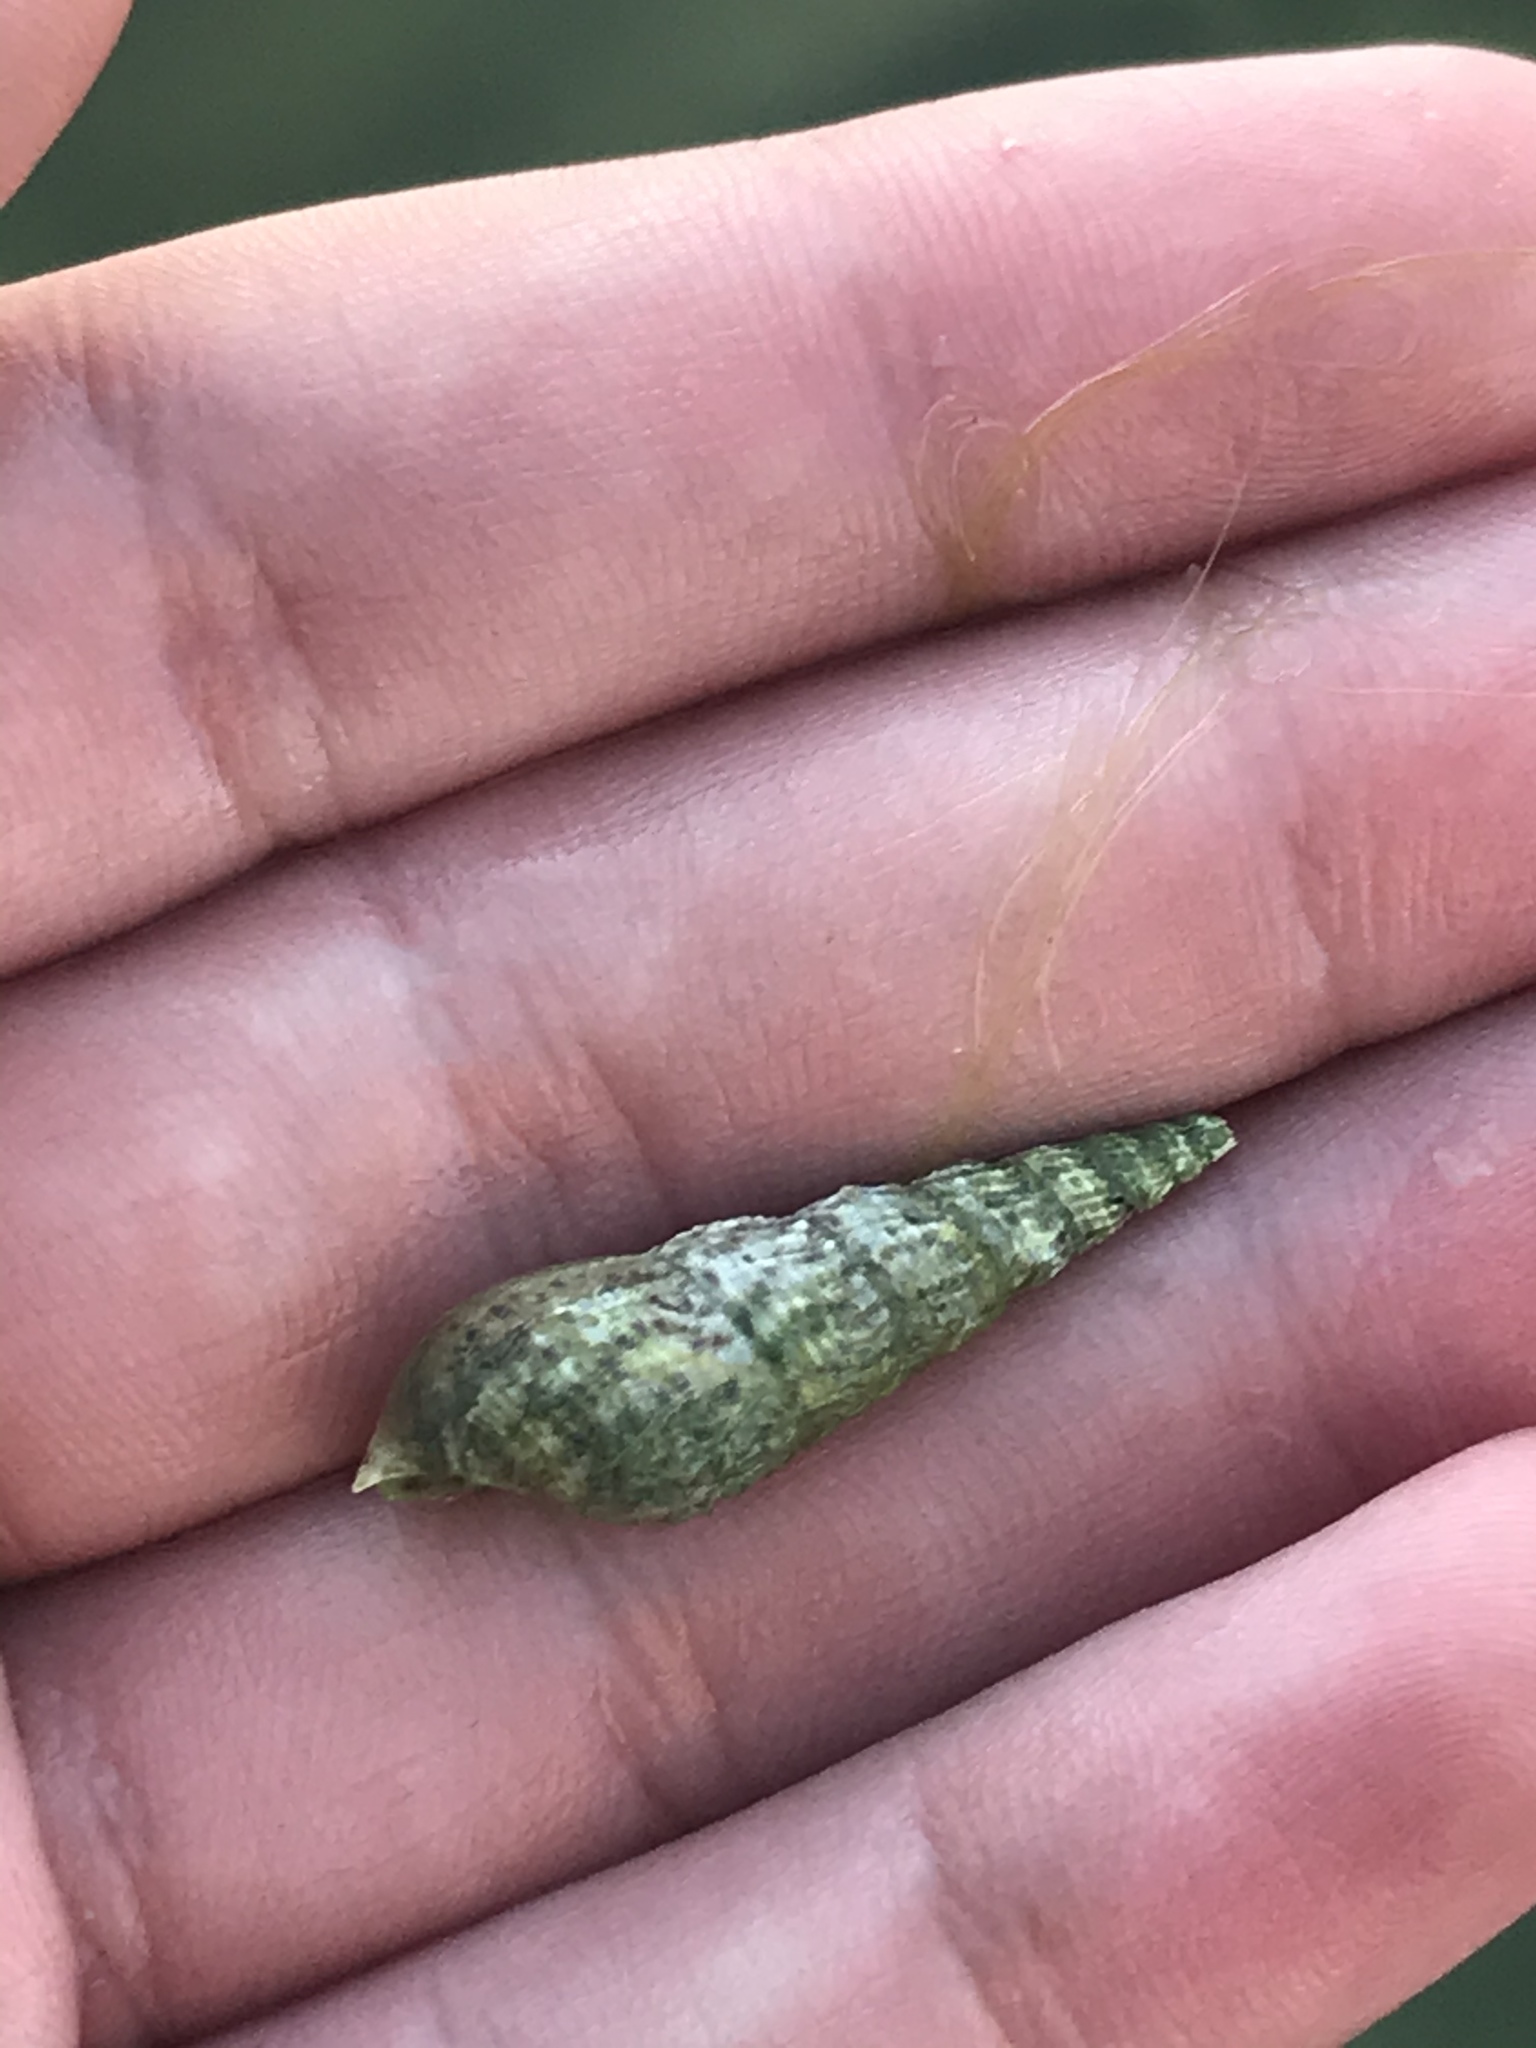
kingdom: Animalia
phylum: Mollusca
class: Gastropoda
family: Thiaridae
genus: Melanoides
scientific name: Melanoides tuberculata
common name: Red-rim melania
